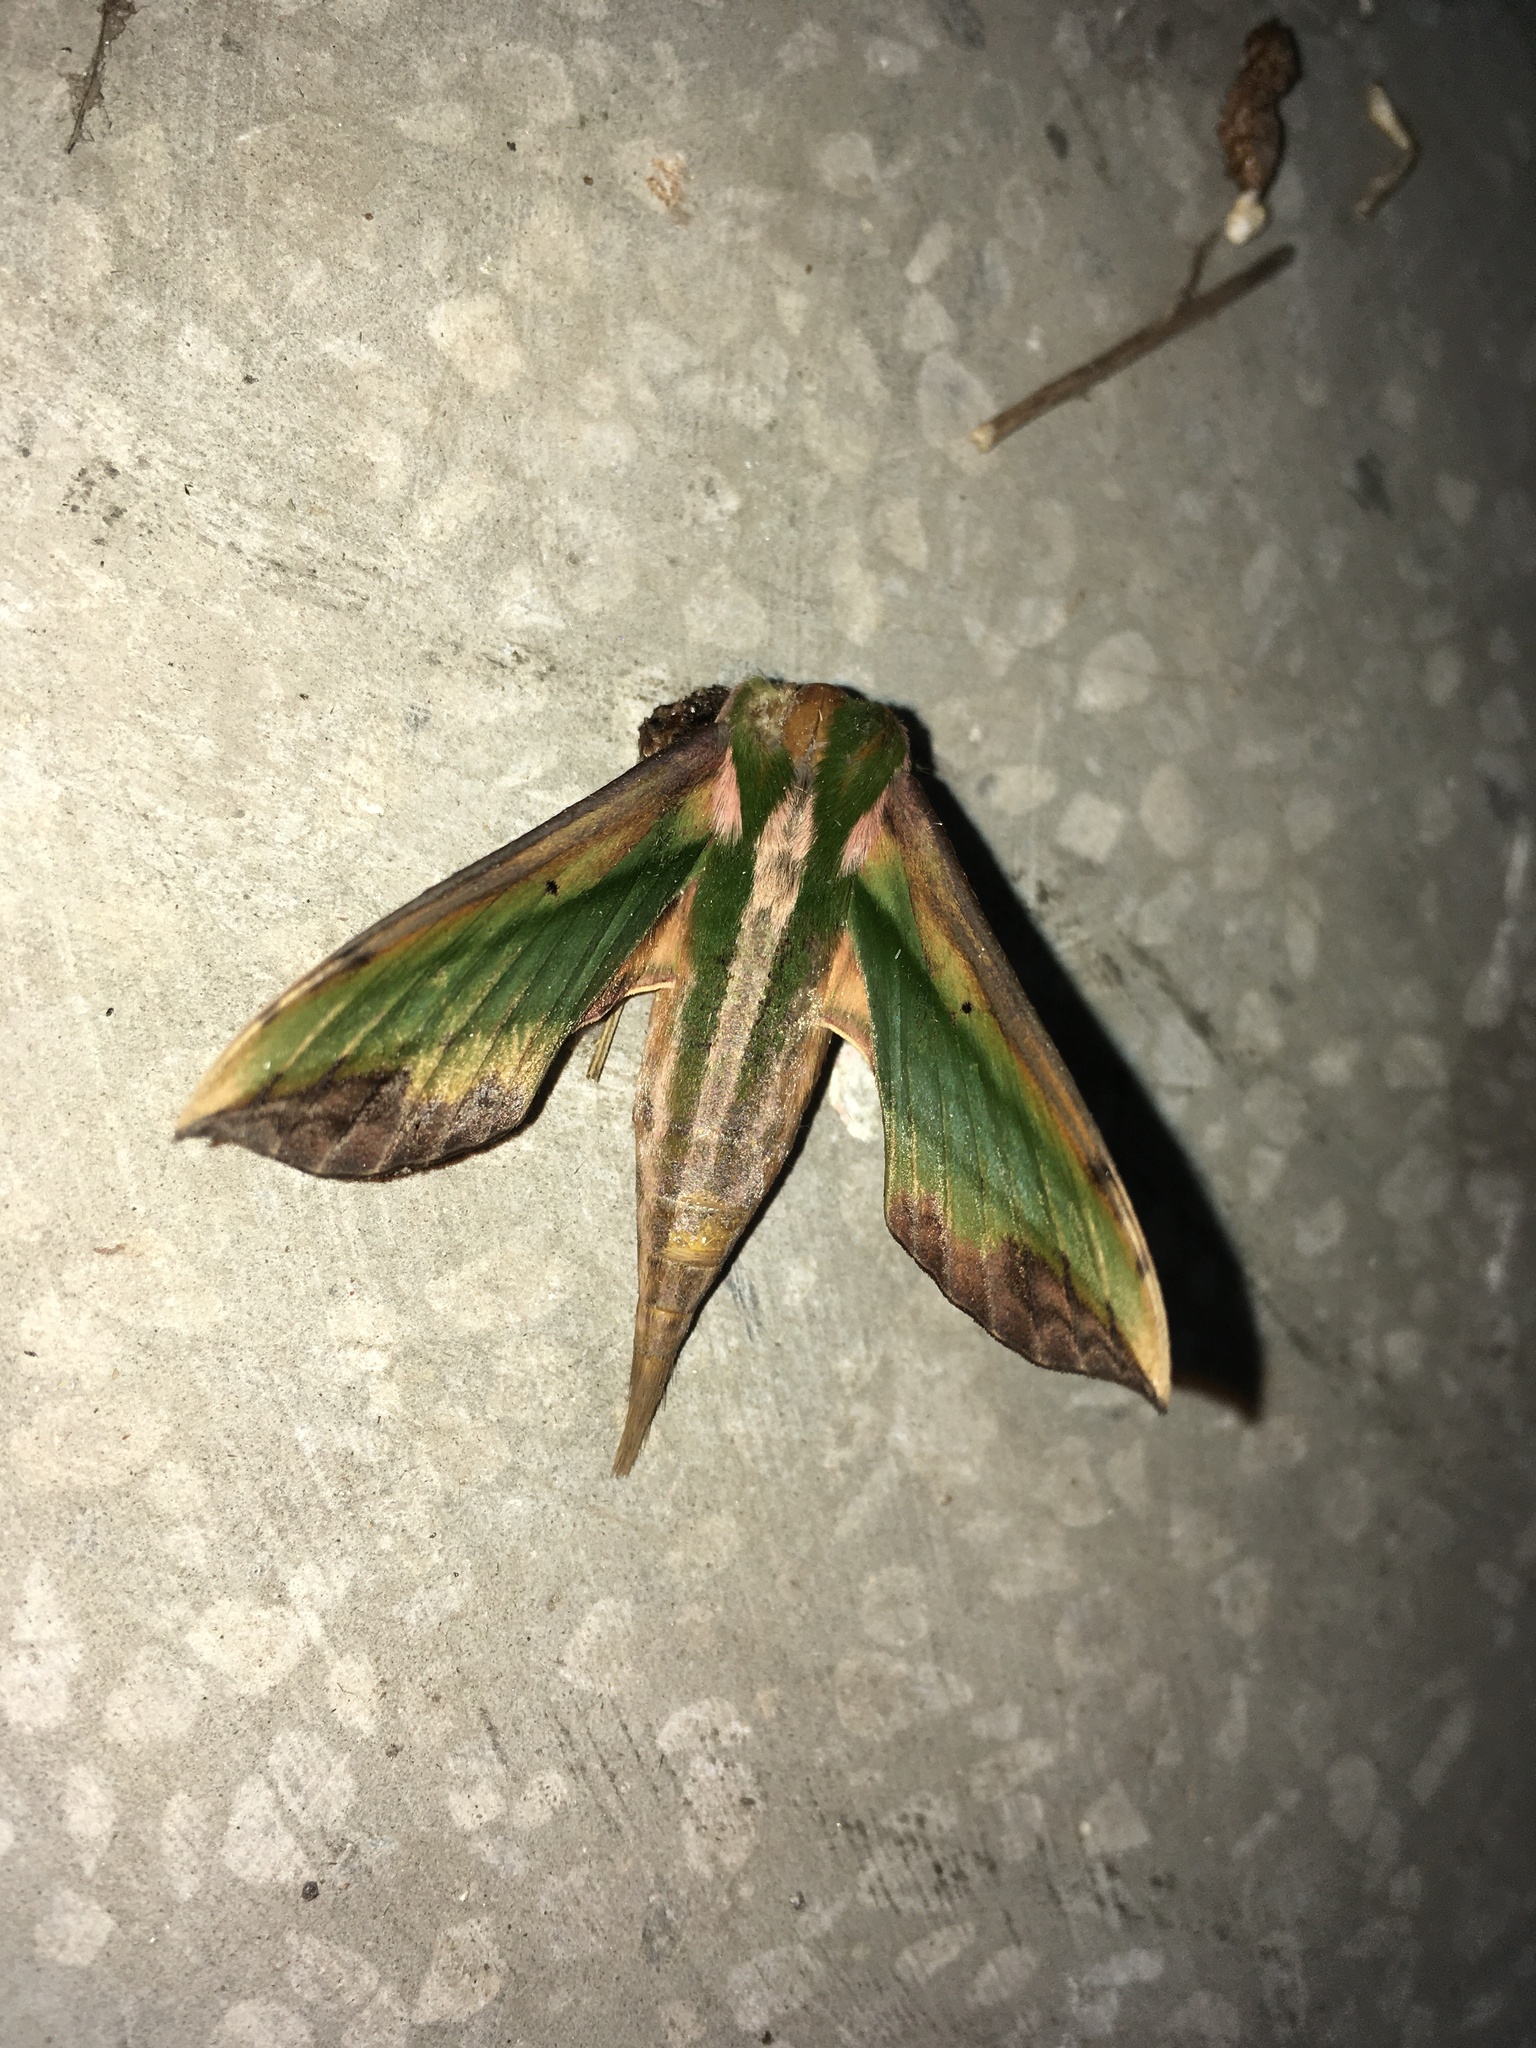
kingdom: Animalia
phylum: Arthropoda
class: Insecta
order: Lepidoptera
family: Sphingidae
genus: Pergesa
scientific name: Pergesa acteus
